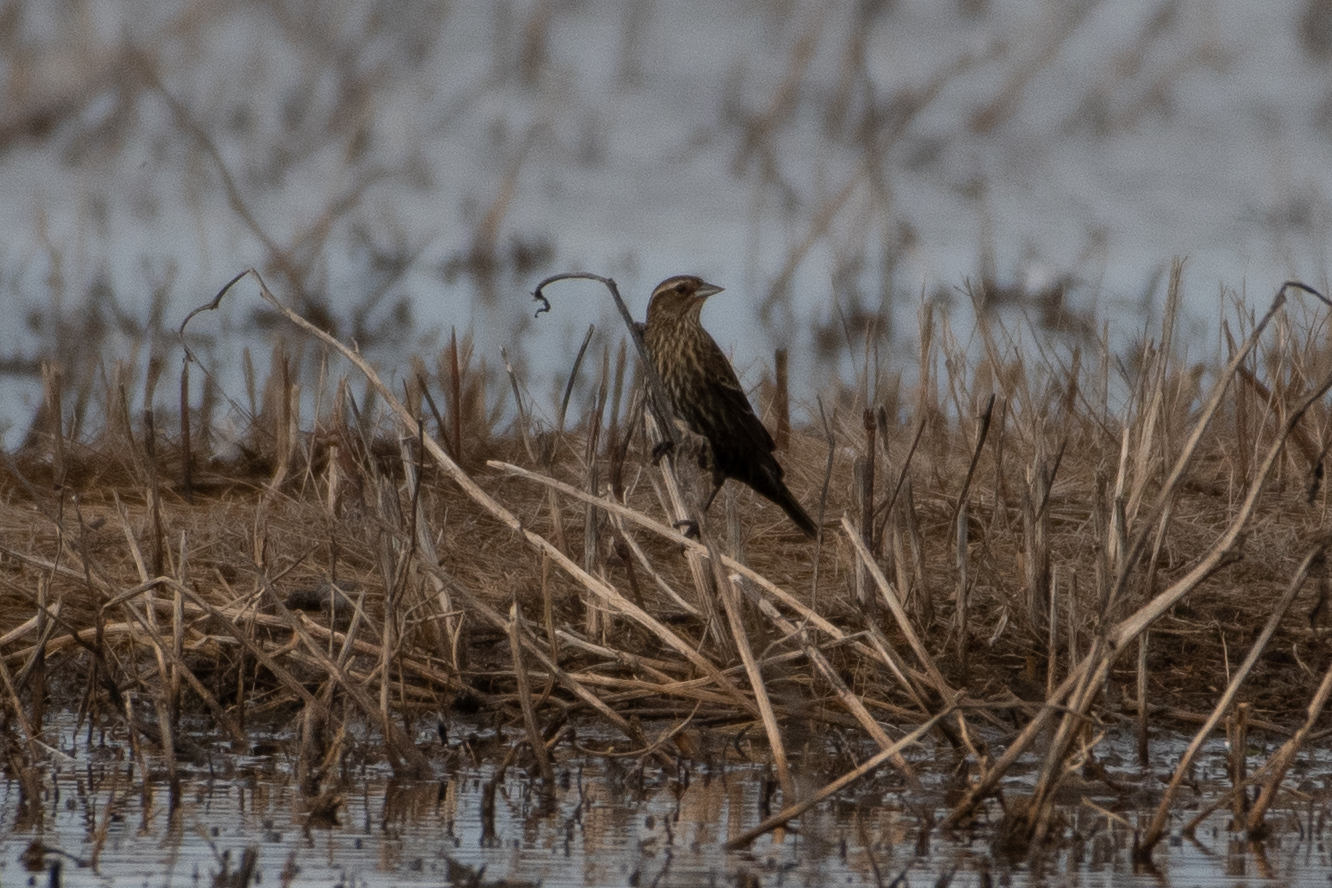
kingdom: Animalia
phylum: Chordata
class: Aves
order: Passeriformes
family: Icteridae
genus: Agelaius
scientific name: Agelaius phoeniceus
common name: Red-winged blackbird
